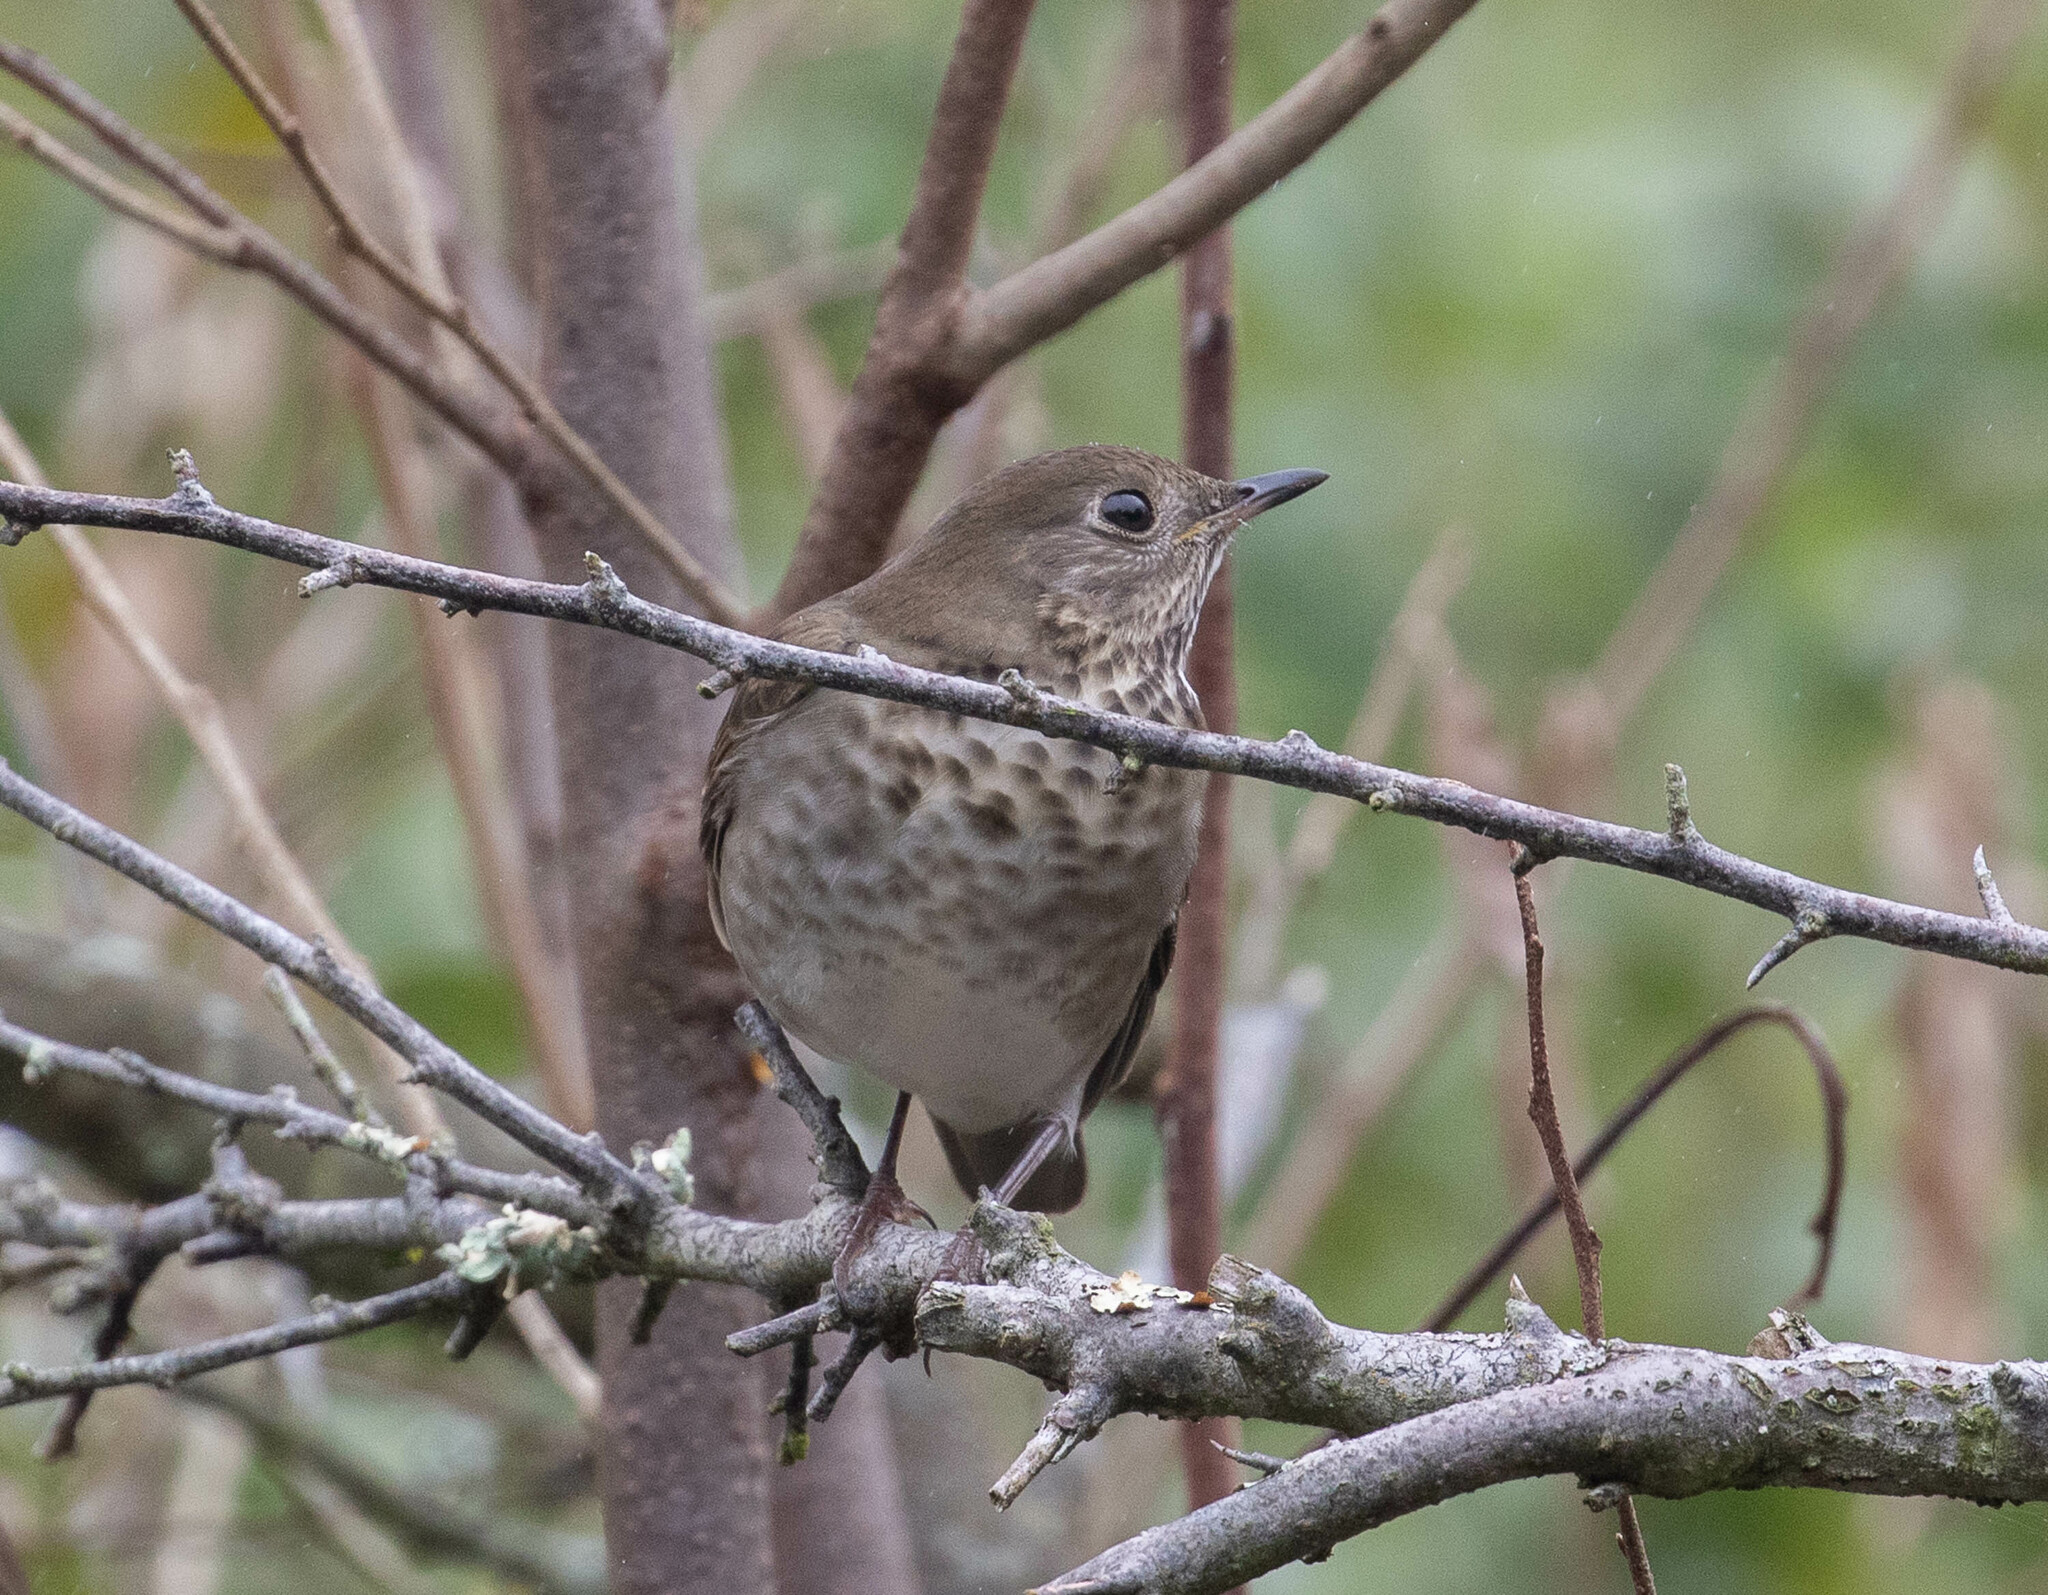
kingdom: Animalia
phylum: Chordata
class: Aves
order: Passeriformes
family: Turdidae
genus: Catharus
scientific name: Catharus minimus
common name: Grey-cheeked thrush
